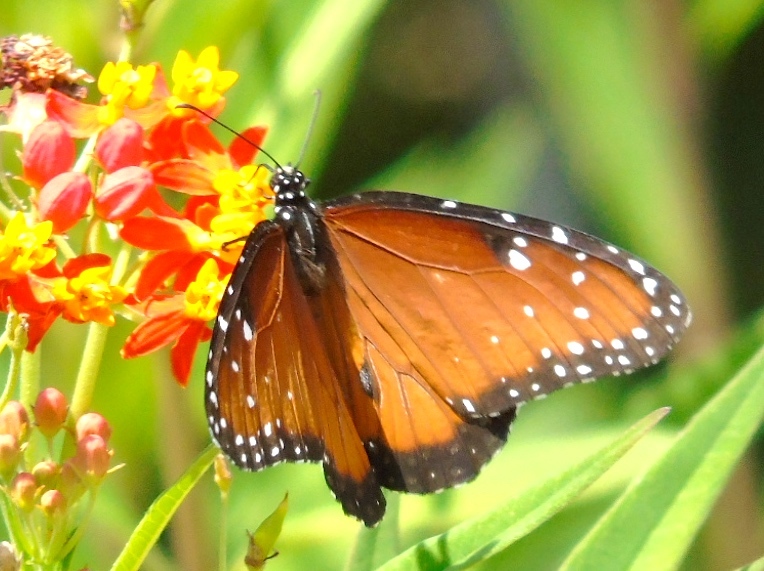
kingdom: Animalia
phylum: Arthropoda
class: Insecta
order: Lepidoptera
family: Nymphalidae
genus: Danaus
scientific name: Danaus gilippus
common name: Queen
